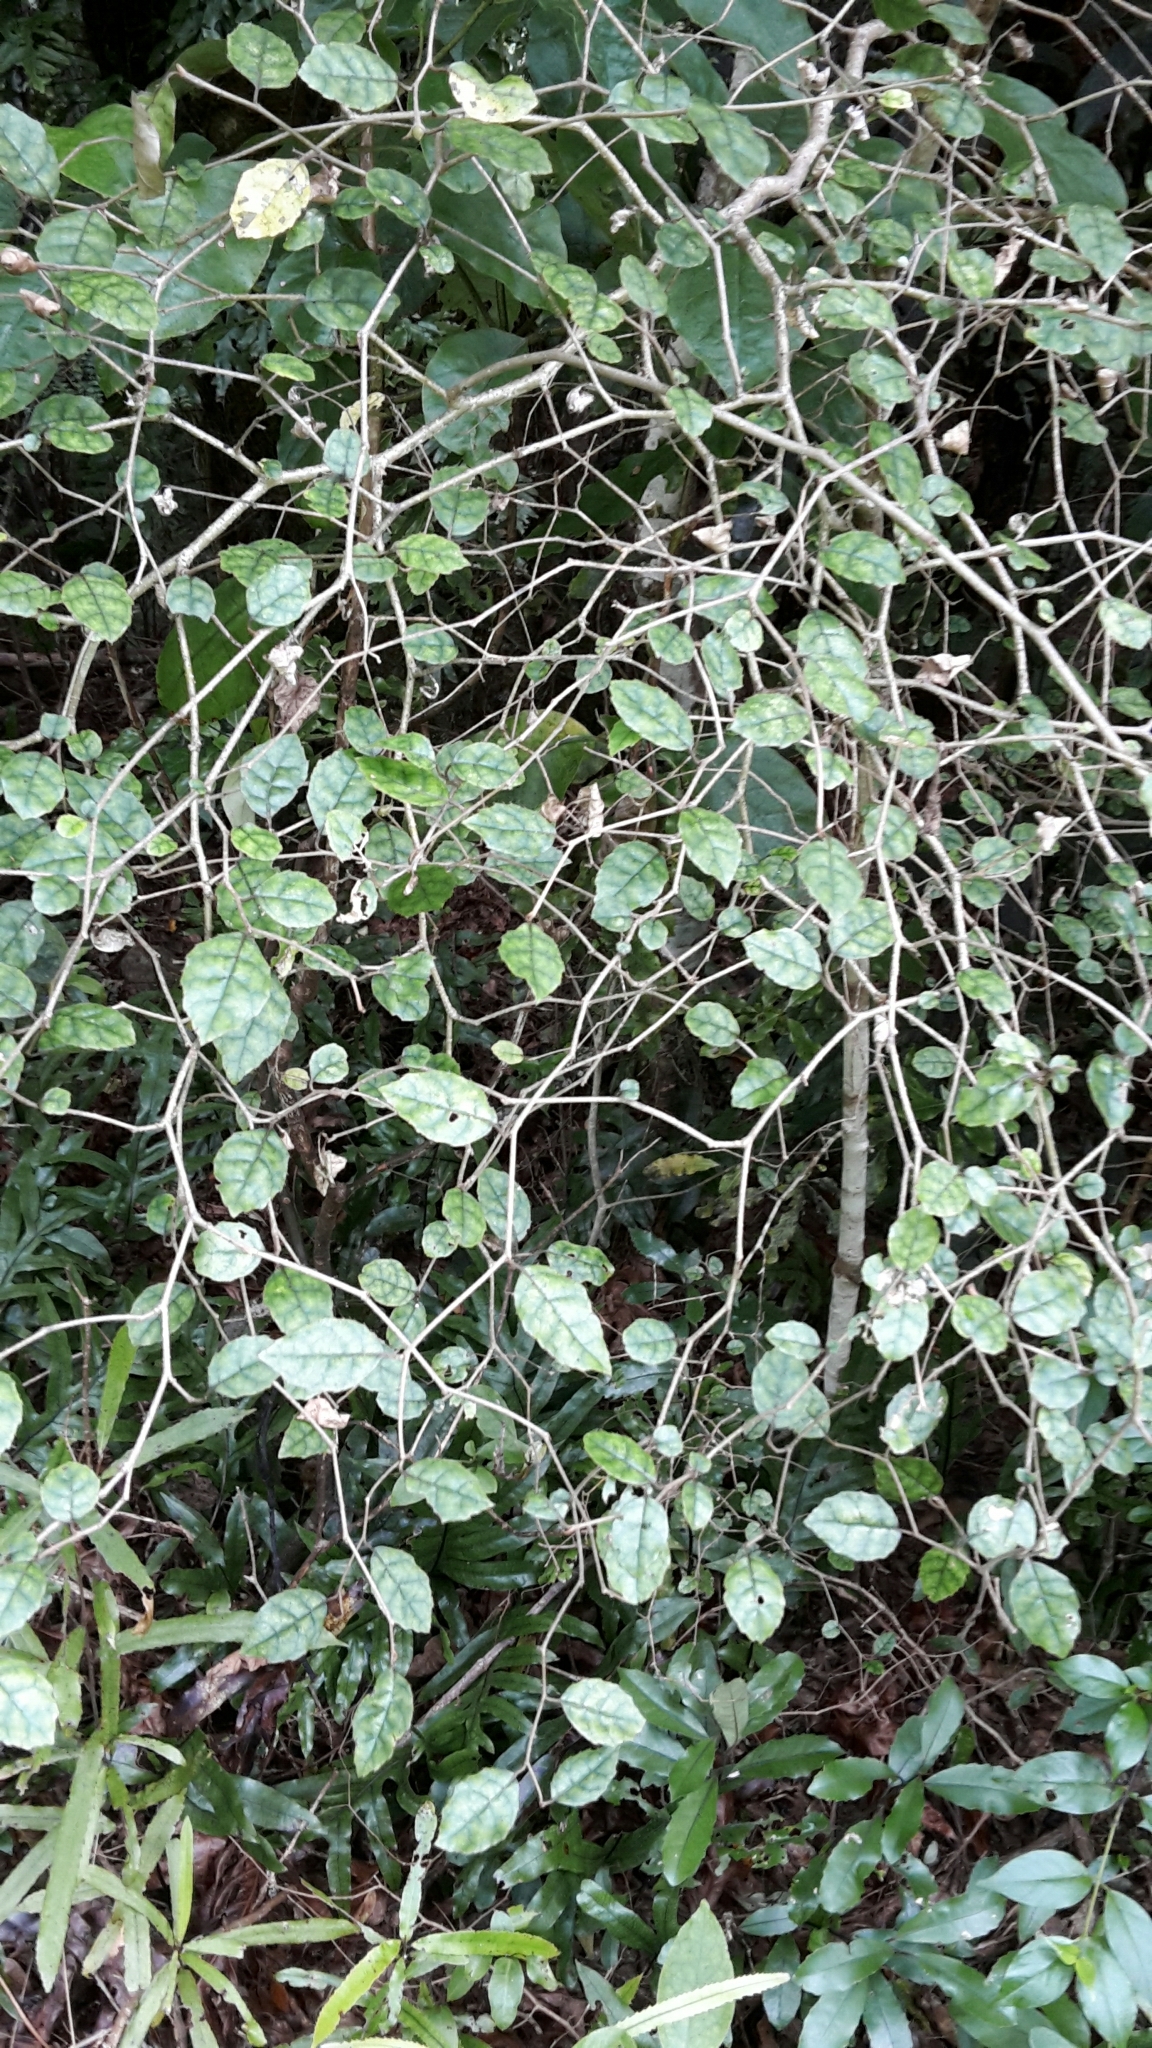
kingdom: Plantae
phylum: Tracheophyta
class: Magnoliopsida
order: Asterales
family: Rousseaceae
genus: Carpodetus
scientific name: Carpodetus serratus
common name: White mapau
